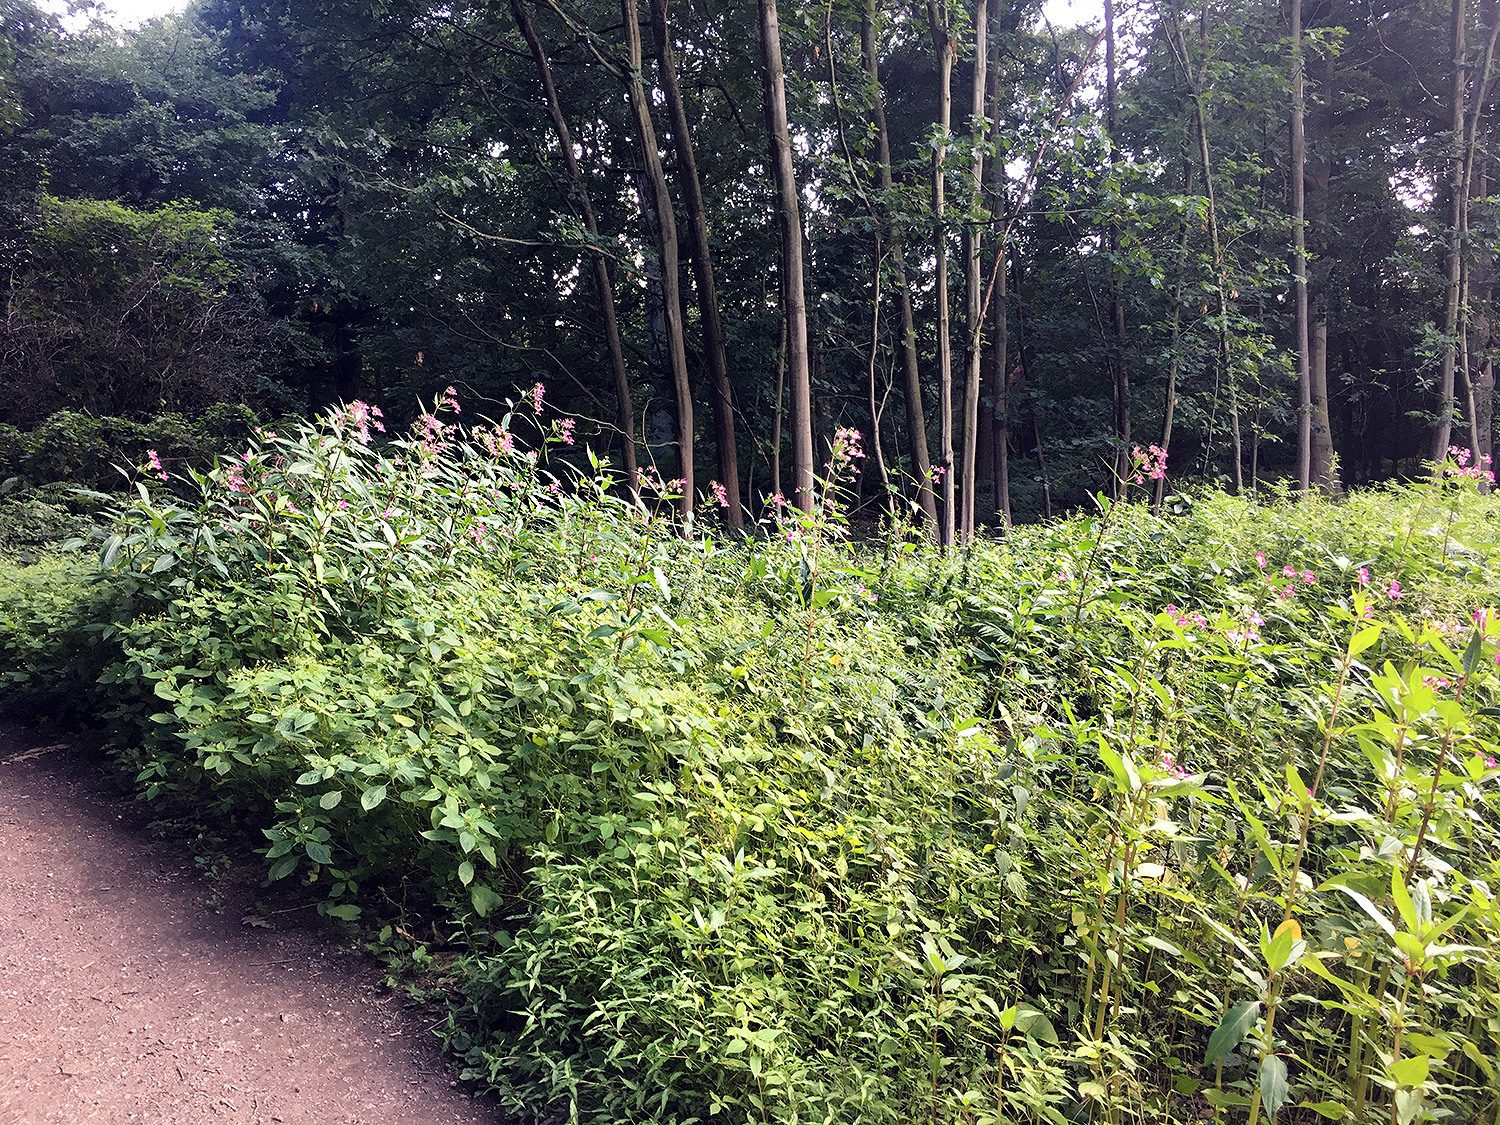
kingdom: Plantae
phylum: Tracheophyta
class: Magnoliopsida
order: Ericales
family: Balsaminaceae
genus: Impatiens
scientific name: Impatiens glandulifera
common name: Himalayan balsam
